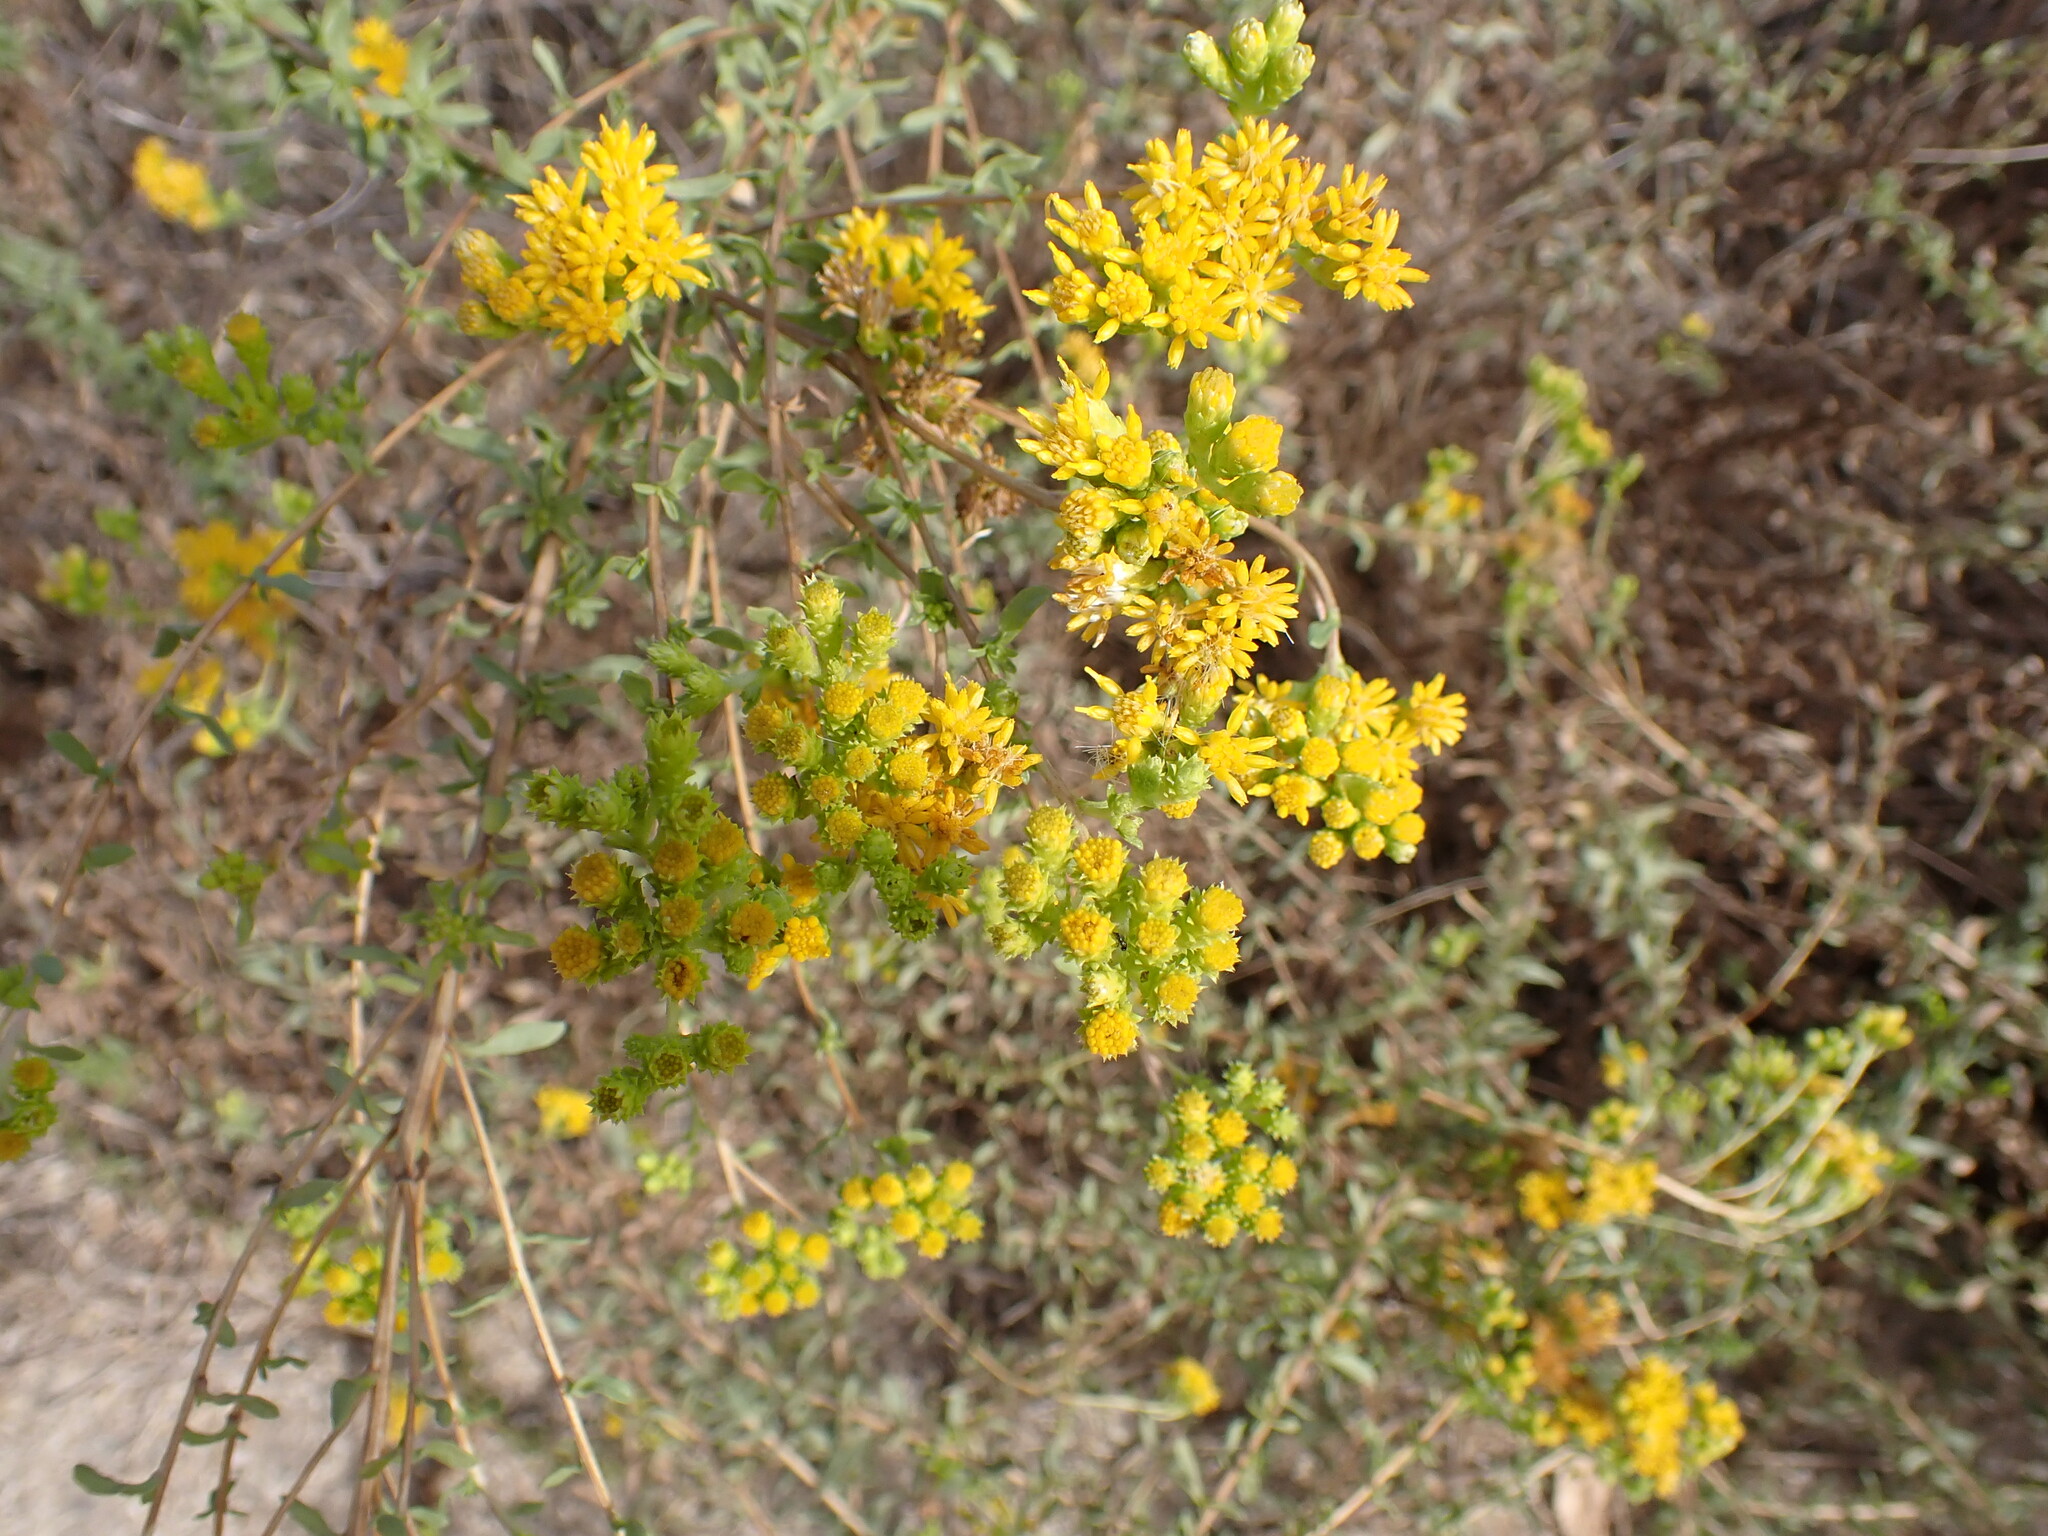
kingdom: Plantae
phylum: Tracheophyta
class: Magnoliopsida
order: Asterales
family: Asteraceae
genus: Isocoma
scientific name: Isocoma menziesii
